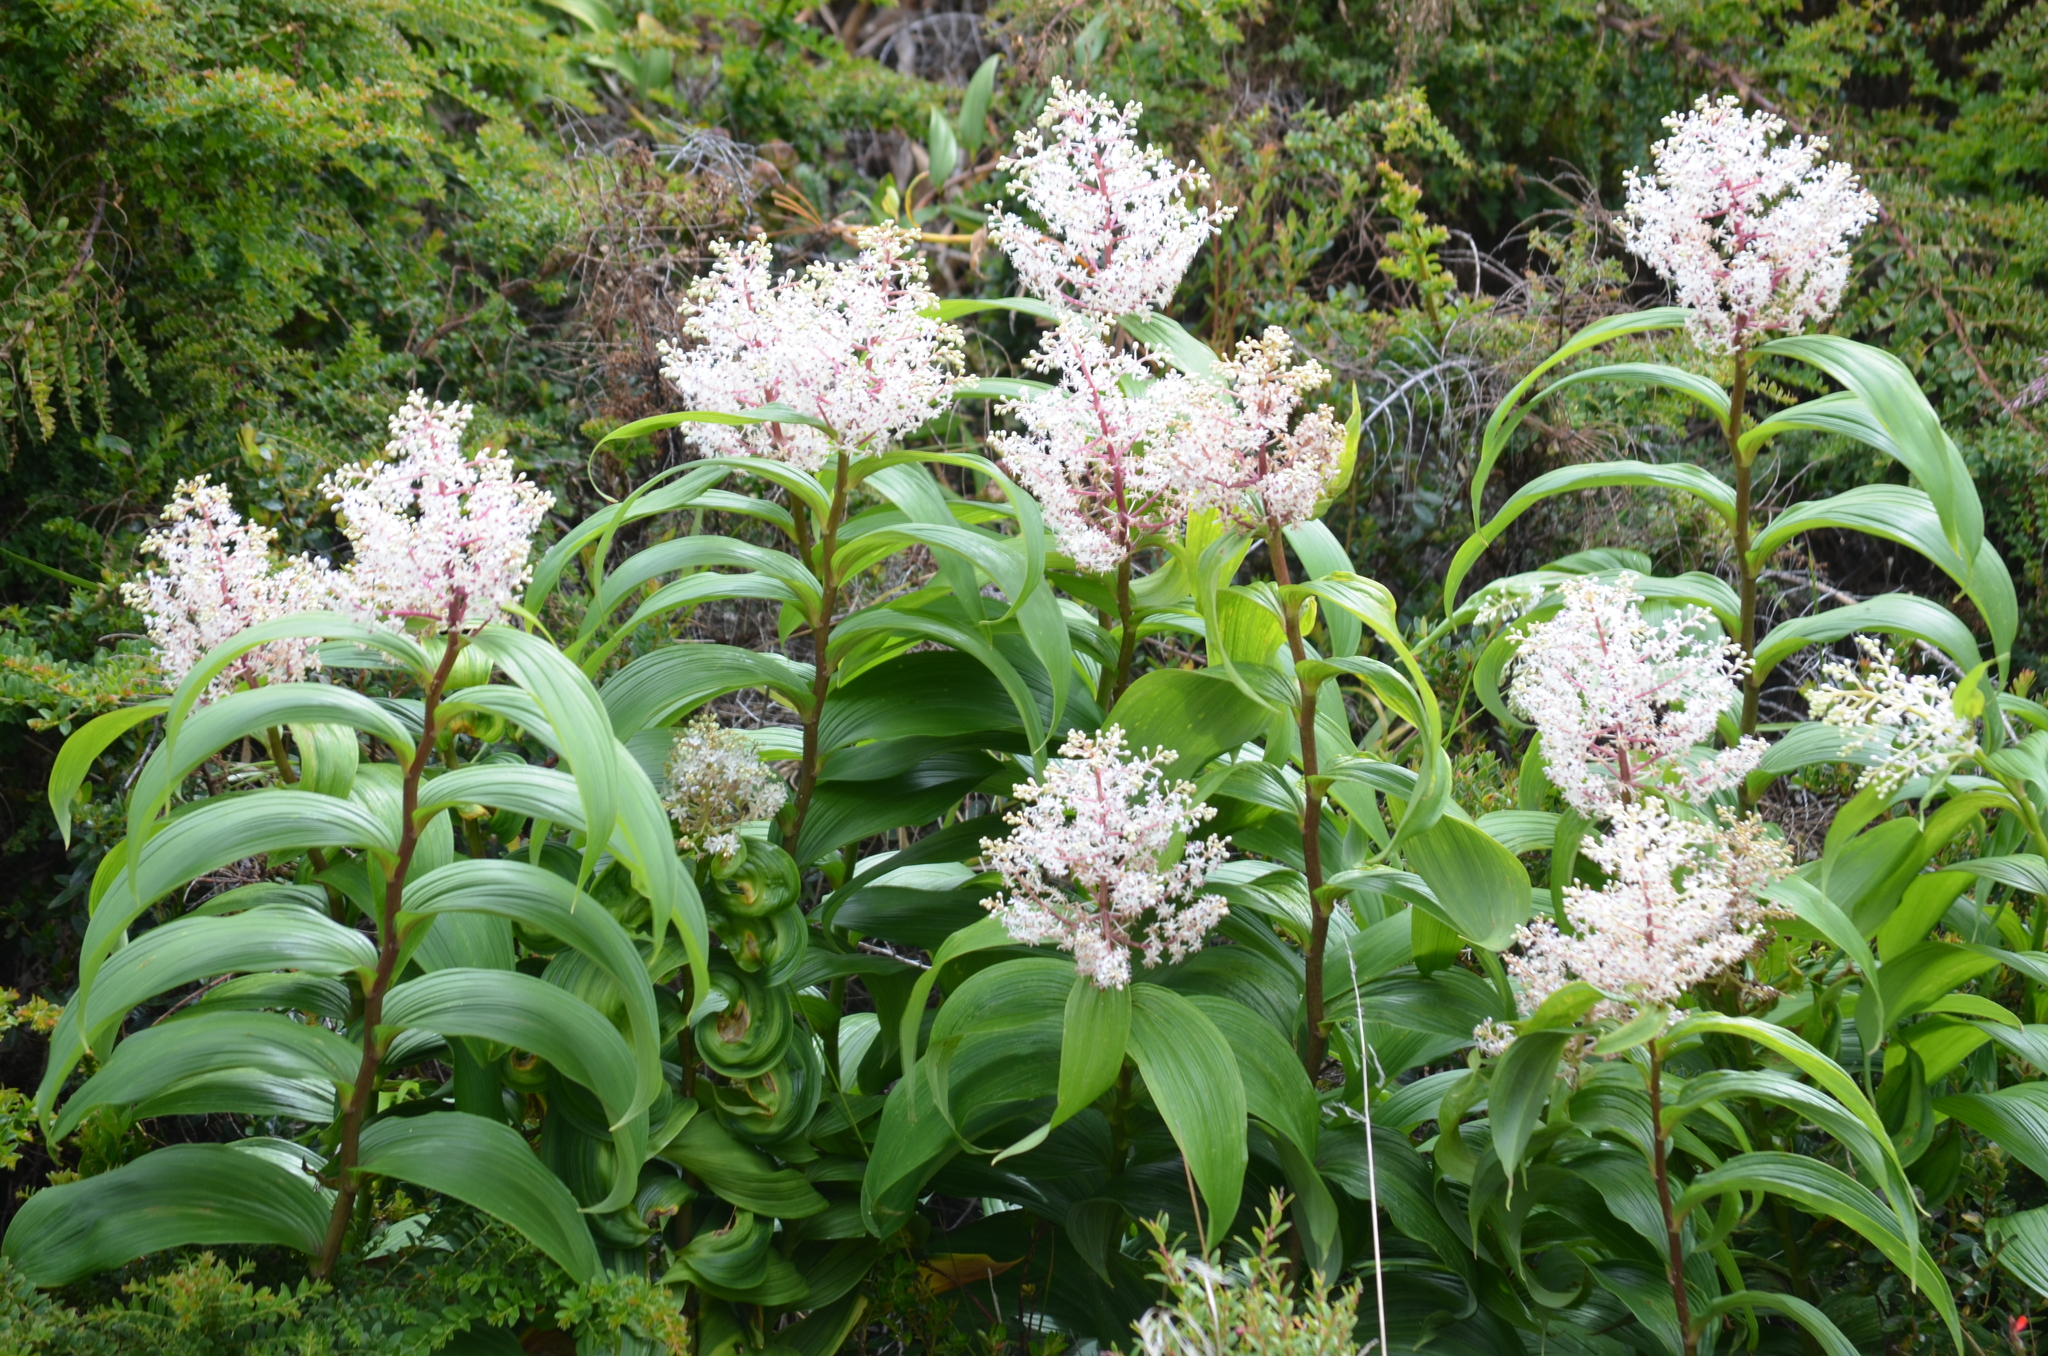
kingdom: Plantae
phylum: Tracheophyta
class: Liliopsida
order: Asparagales
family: Asparagaceae
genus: Maianthemum
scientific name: Maianthemum gigas
